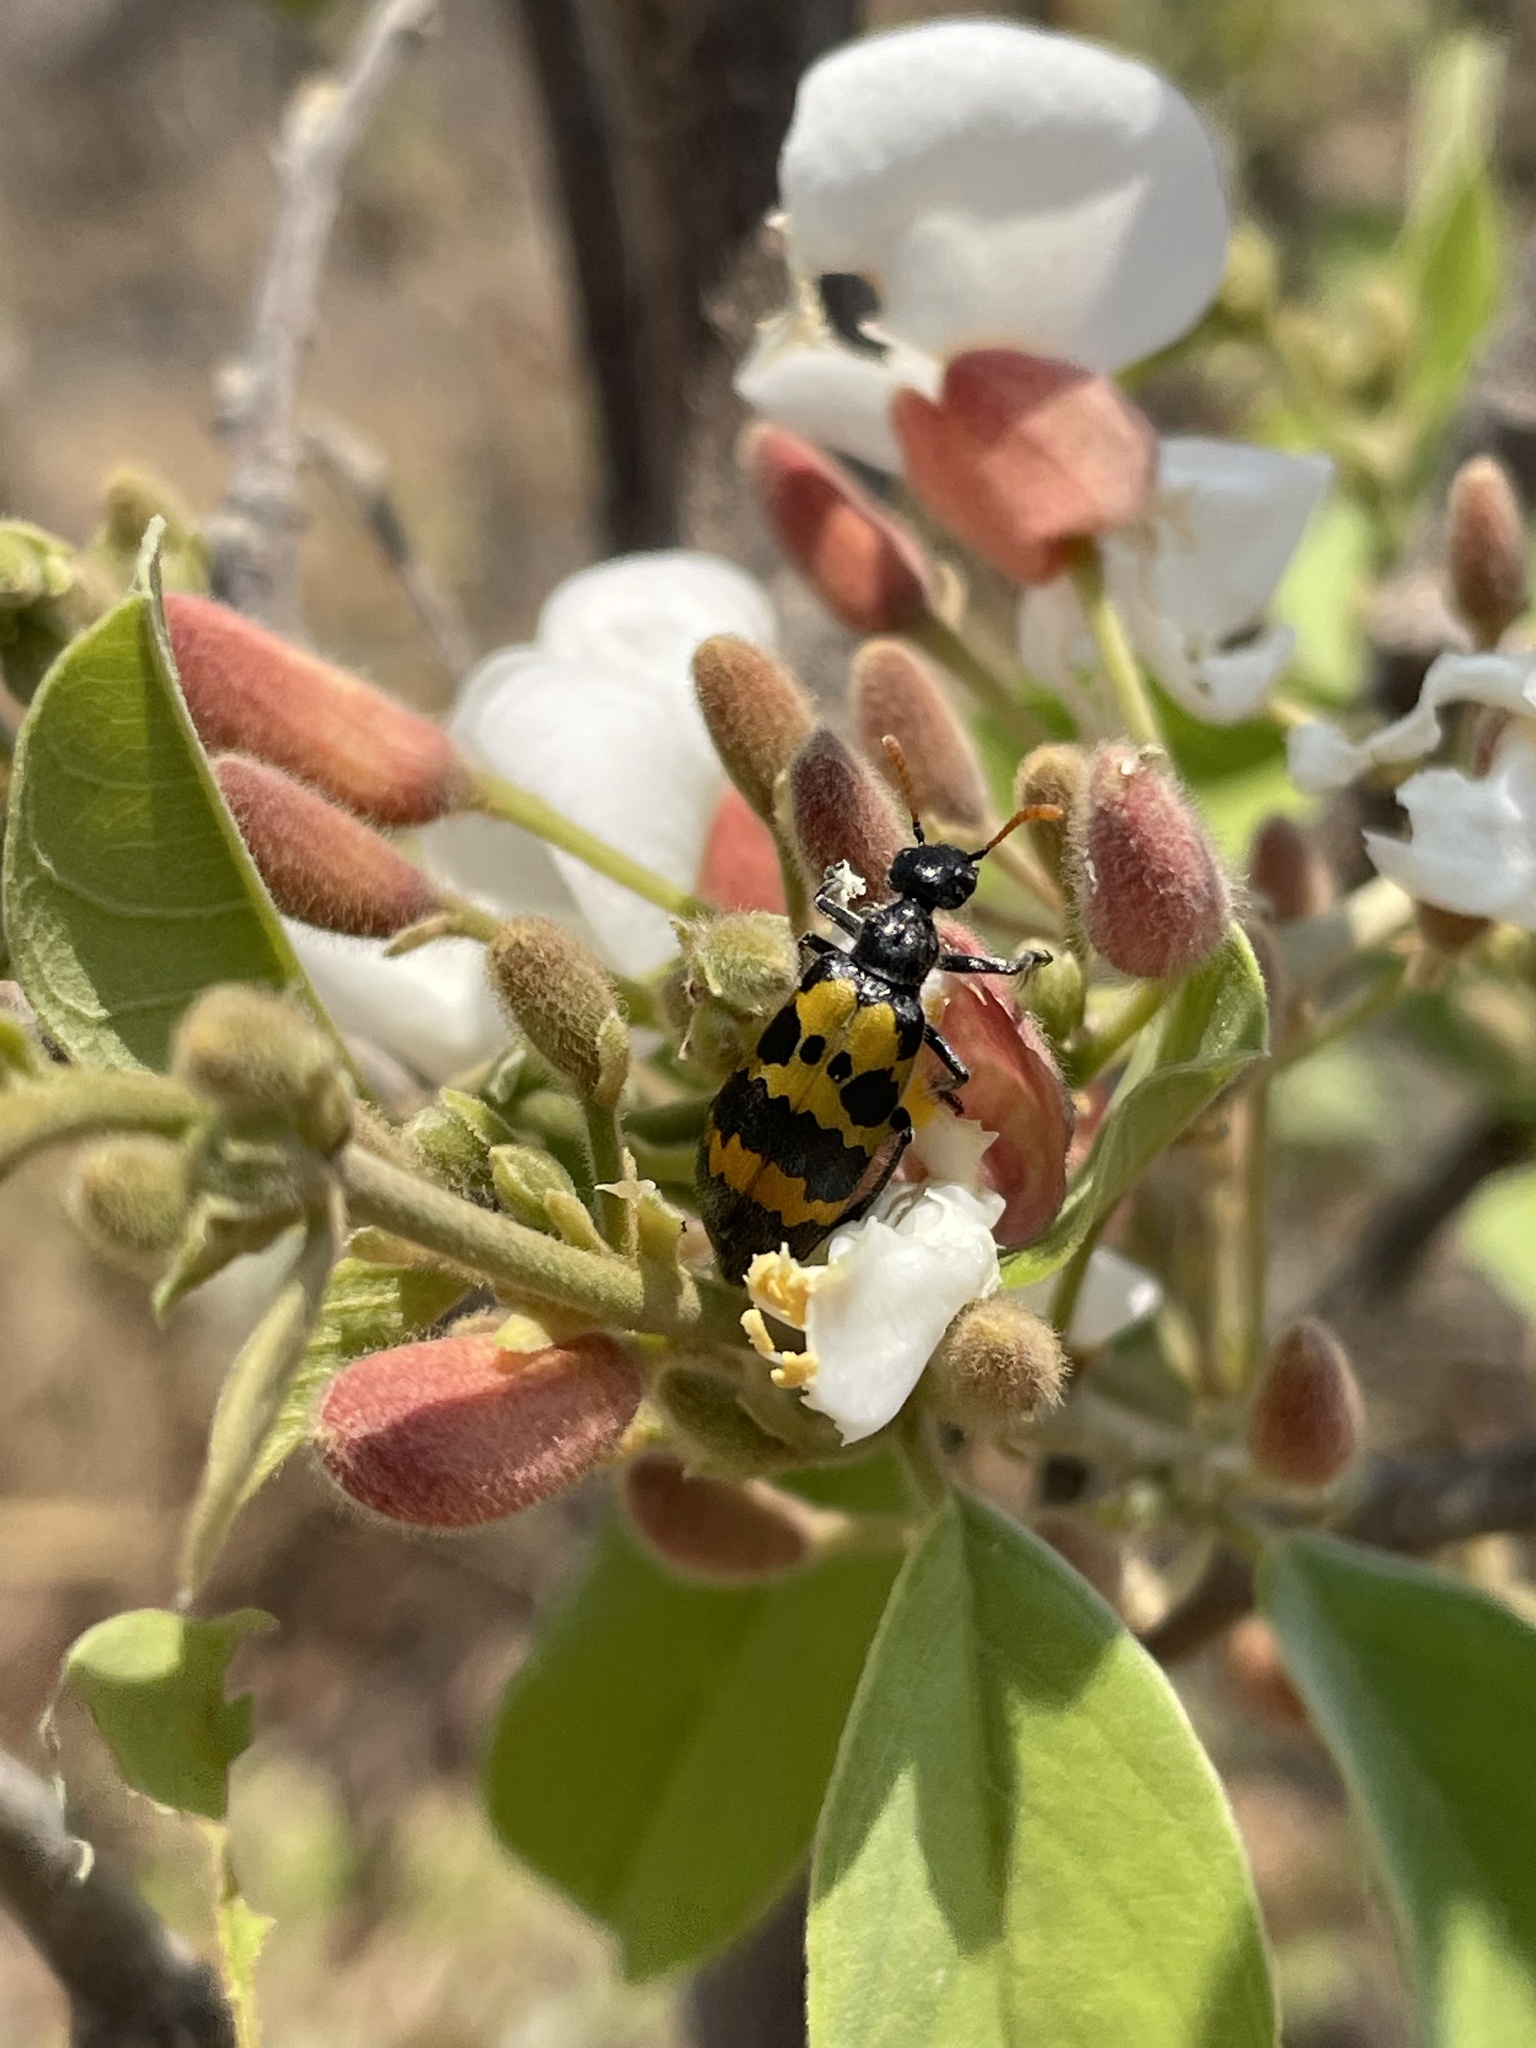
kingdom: Animalia
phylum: Arthropoda
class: Insecta
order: Coleoptera
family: Meloidae
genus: Hycleus
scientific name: Hycleus congoensis
